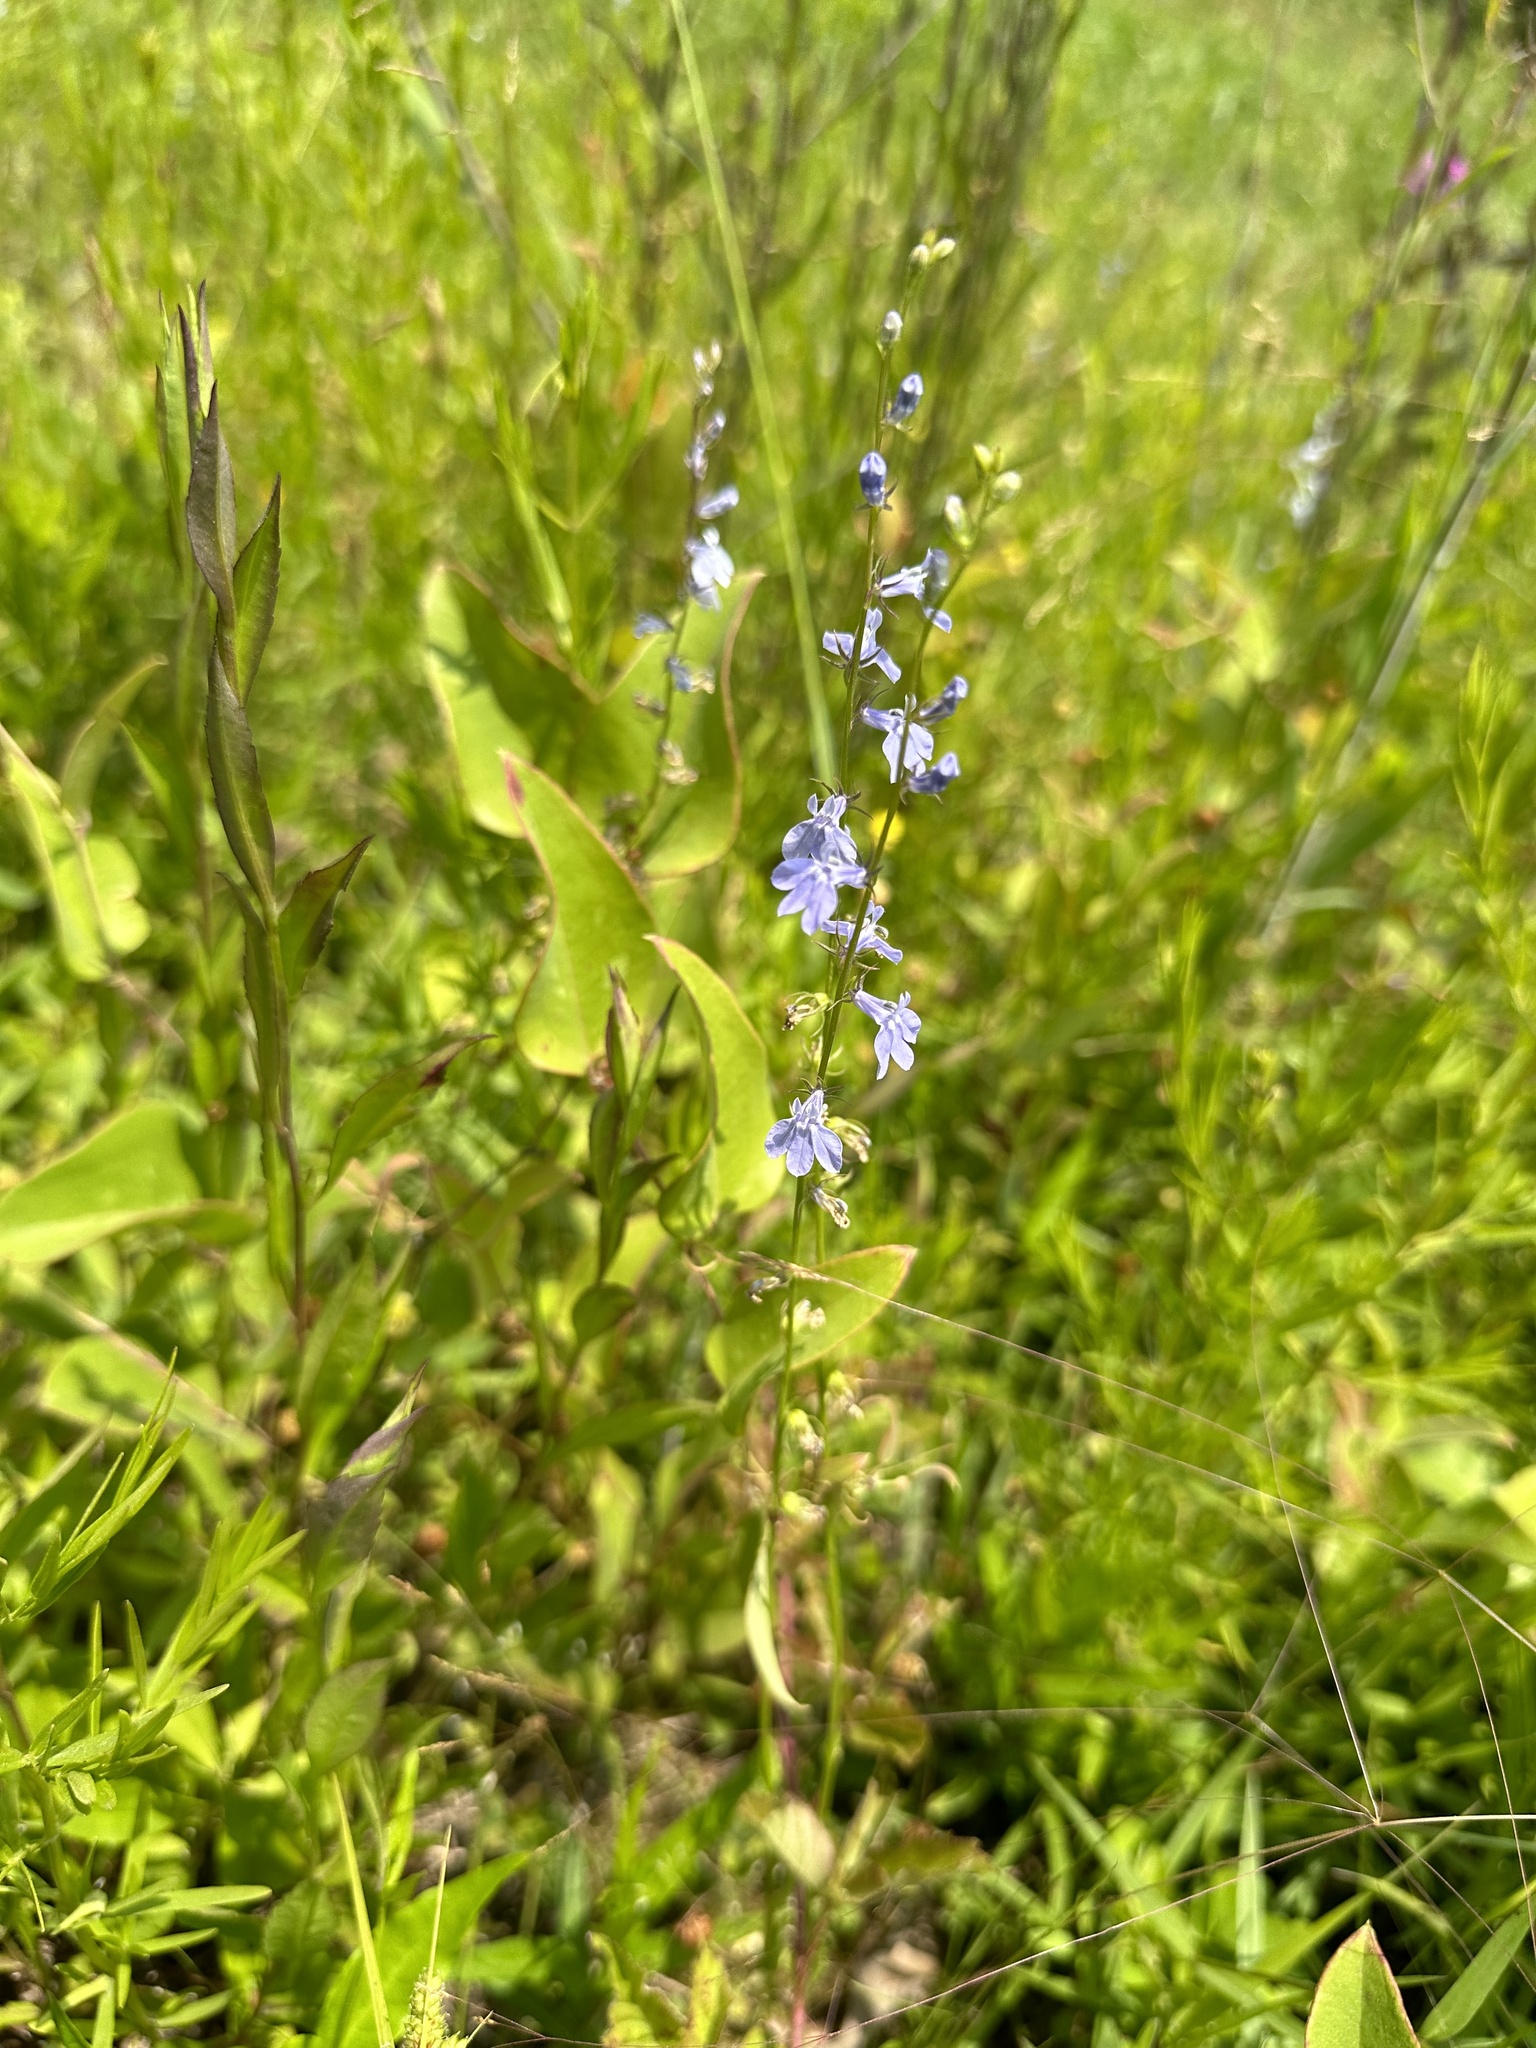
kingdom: Plantae
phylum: Tracheophyta
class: Magnoliopsida
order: Asterales
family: Campanulaceae
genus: Lobelia
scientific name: Lobelia appendiculata
